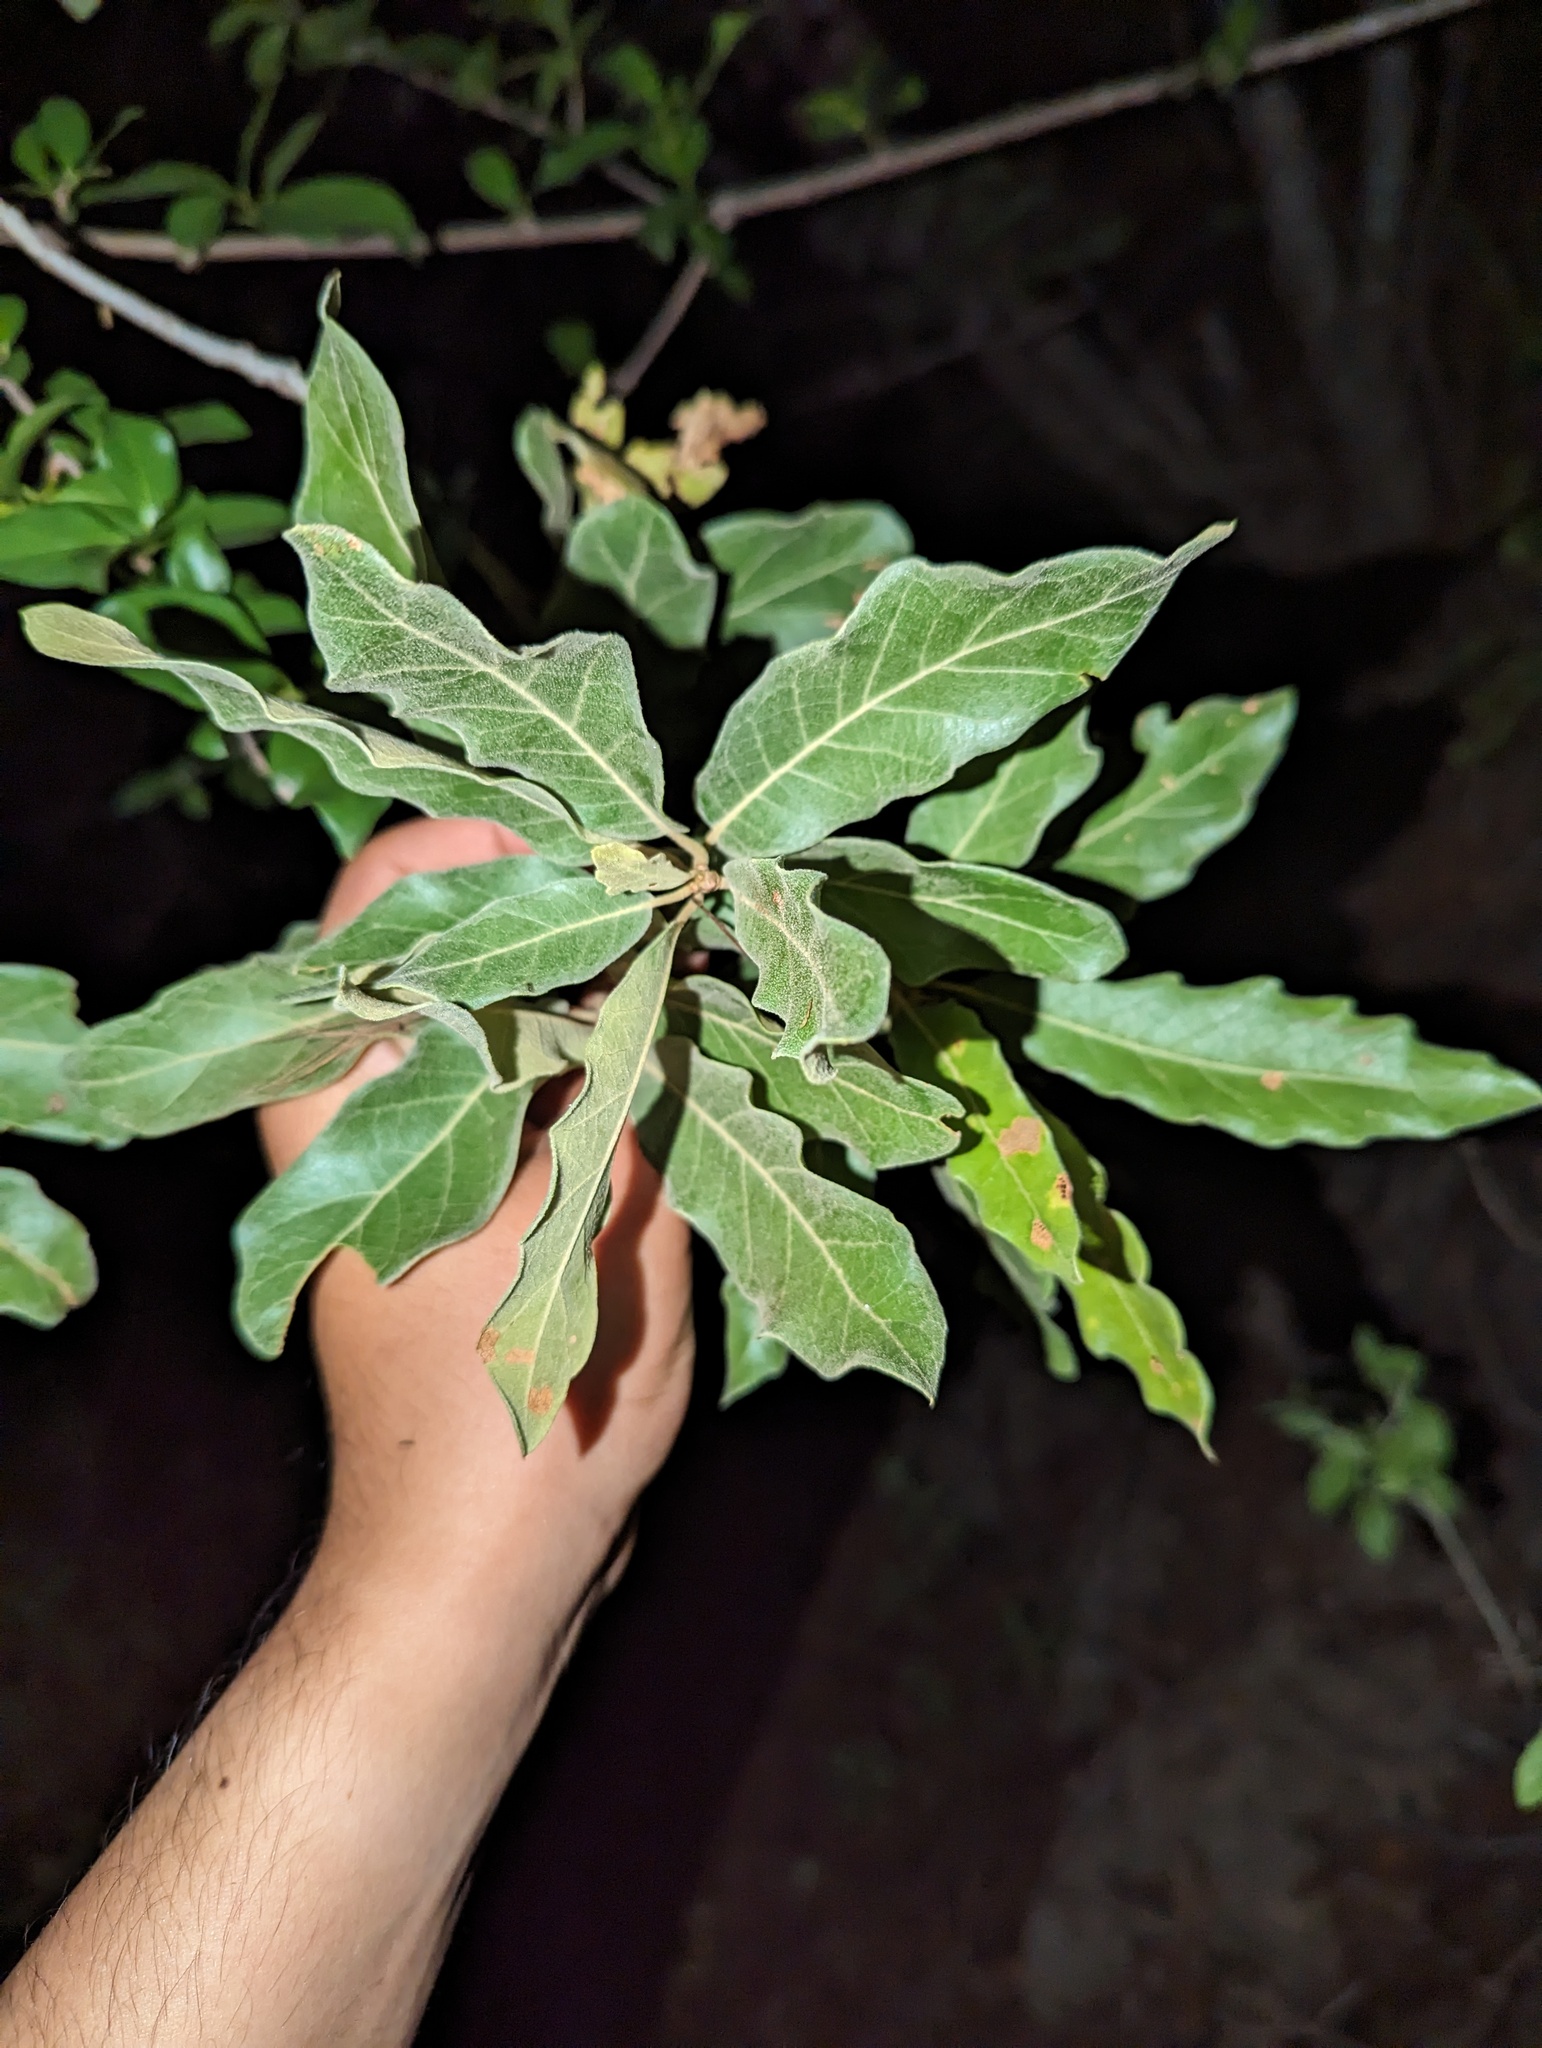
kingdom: Plantae
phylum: Tracheophyta
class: Magnoliopsida
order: Fagales
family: Fagaceae
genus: Quercus
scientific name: Quercus tuberculata
